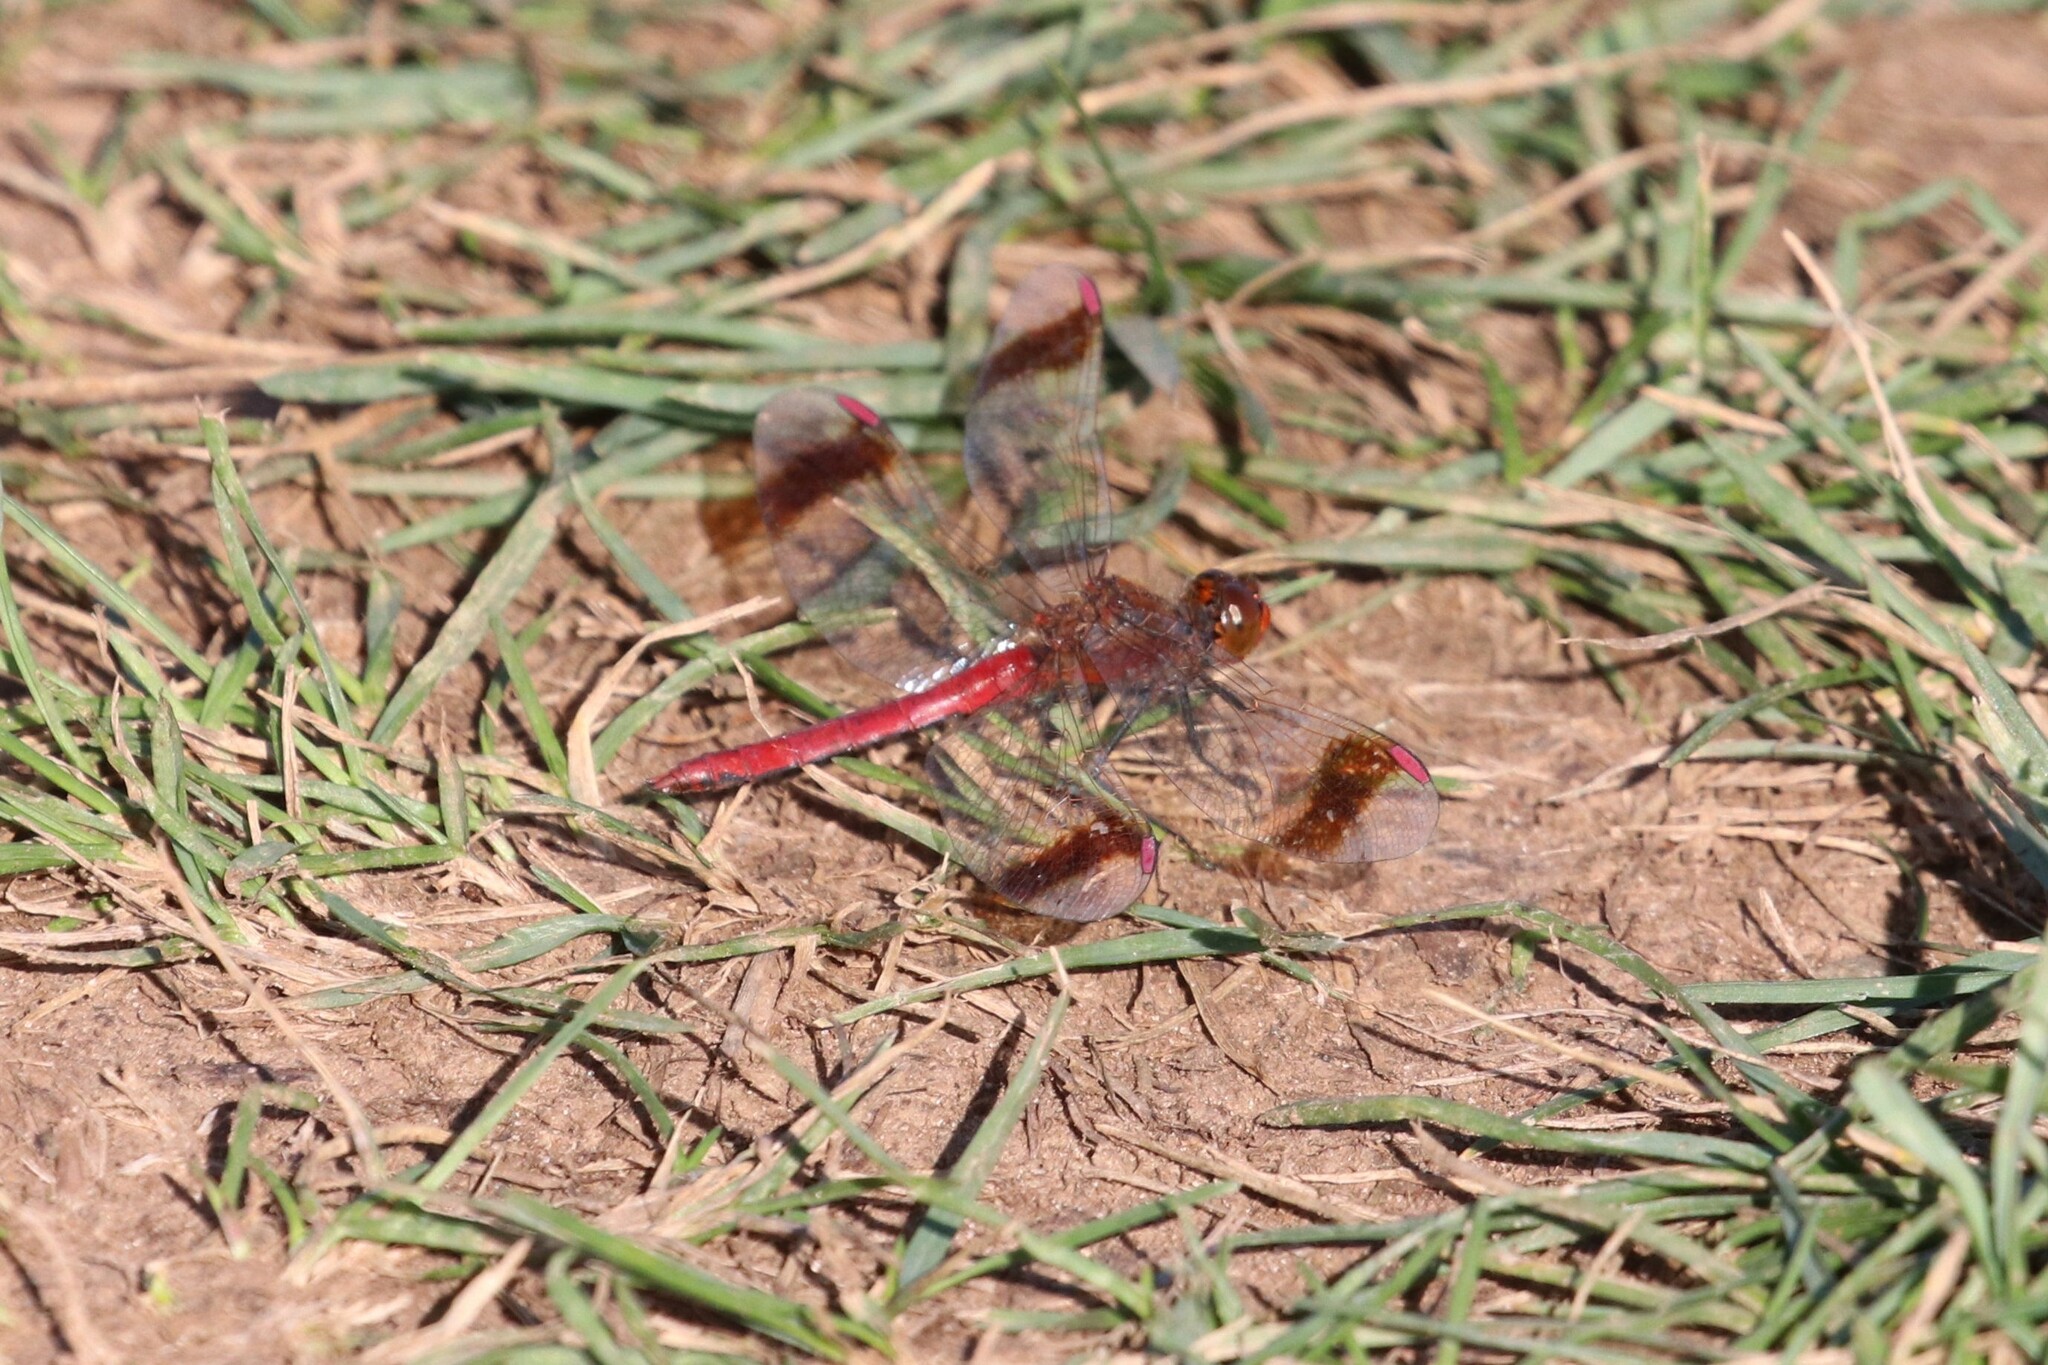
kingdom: Animalia
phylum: Arthropoda
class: Insecta
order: Odonata
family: Libellulidae
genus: Sympetrum
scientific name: Sympetrum pedemontanum
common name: Banded darter
